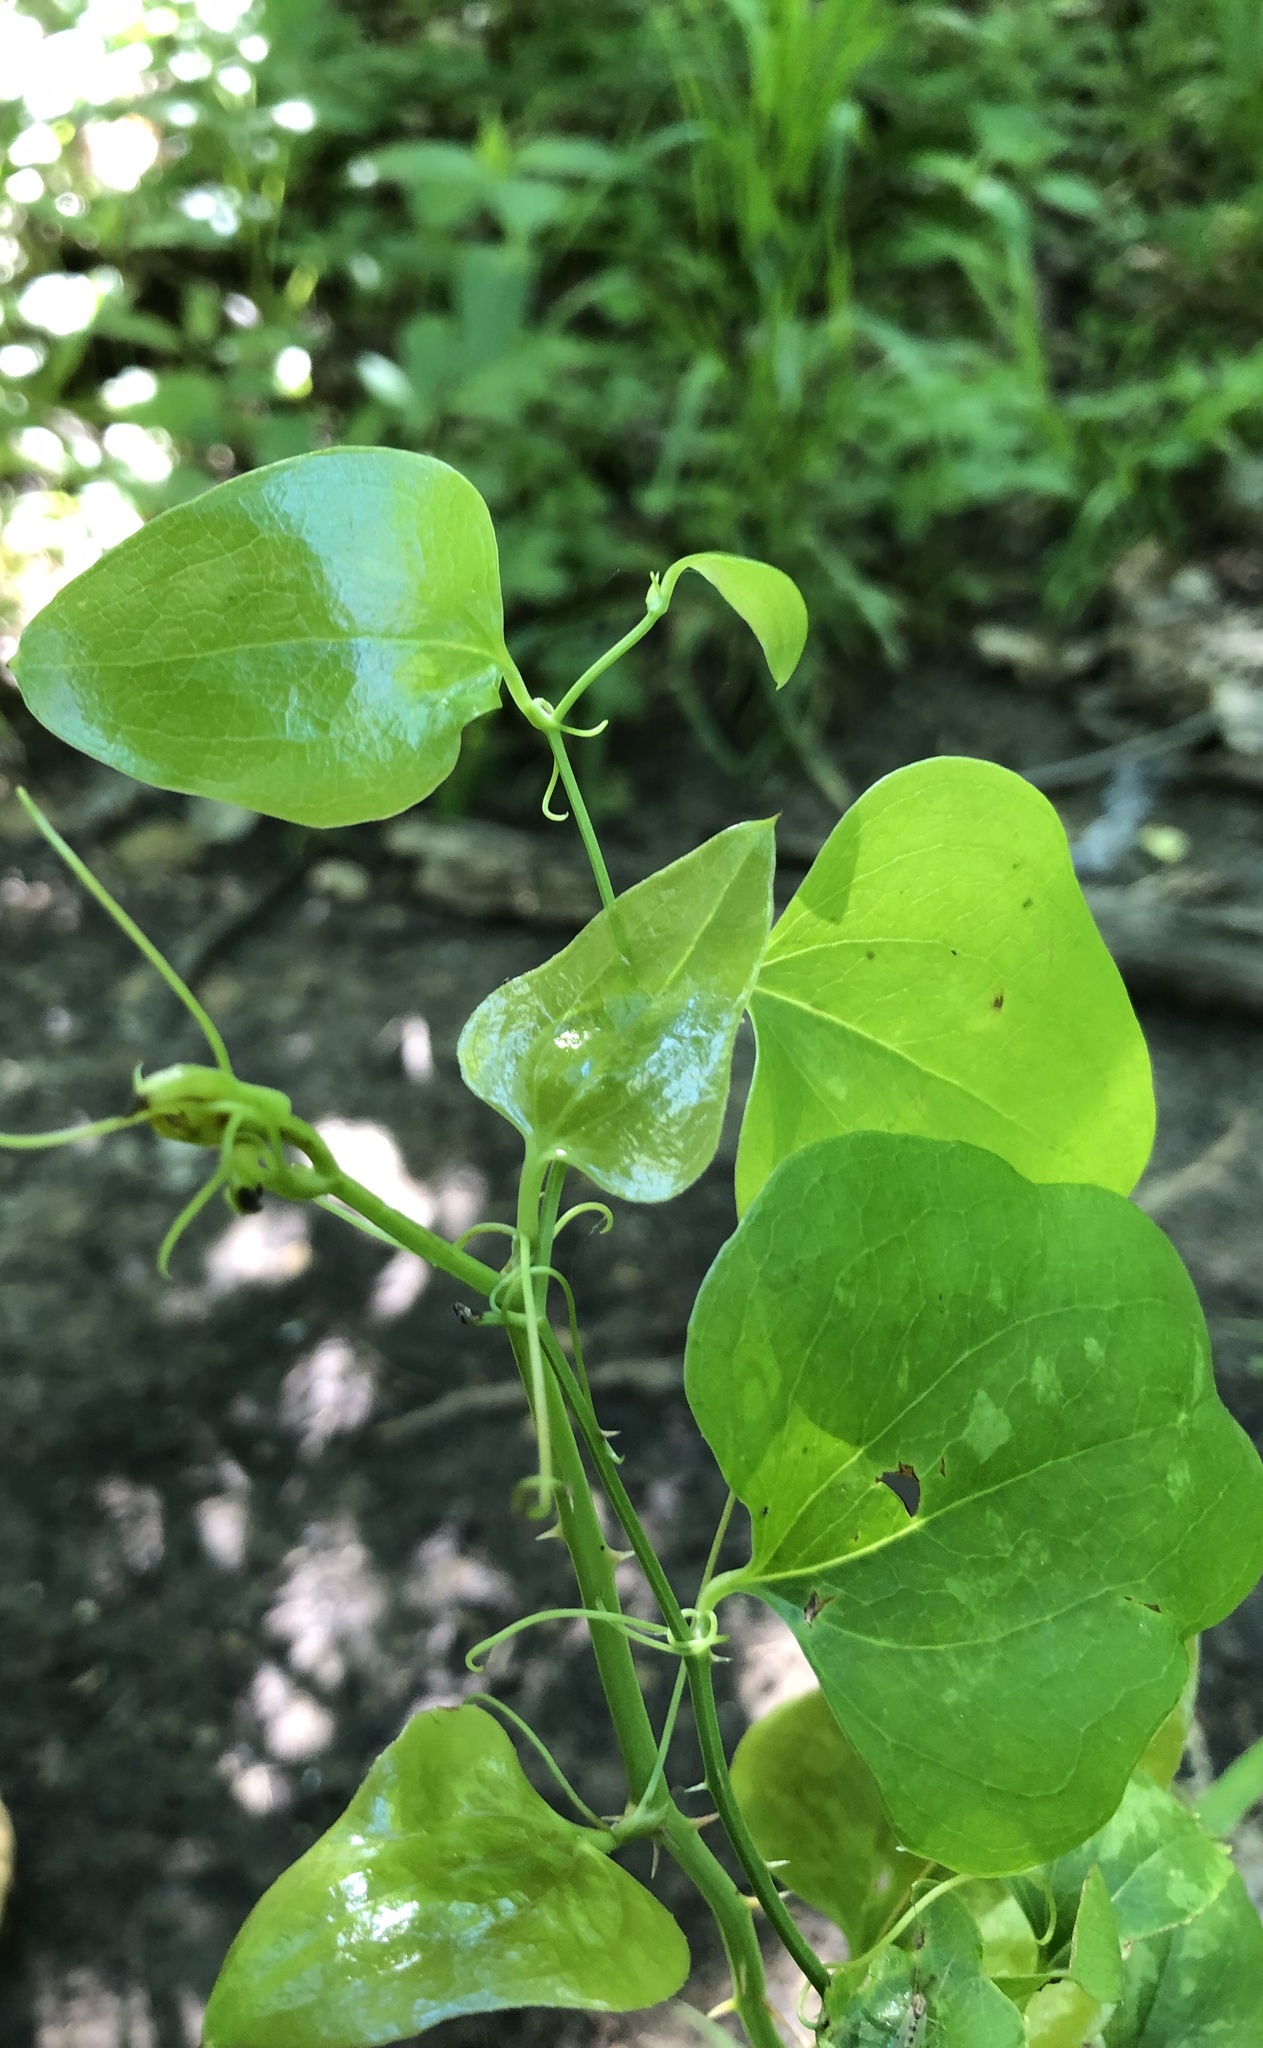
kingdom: Plantae
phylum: Tracheophyta
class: Liliopsida
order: Liliales
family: Smilacaceae
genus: Smilax
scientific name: Smilax bona-nox
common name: Catbrier
